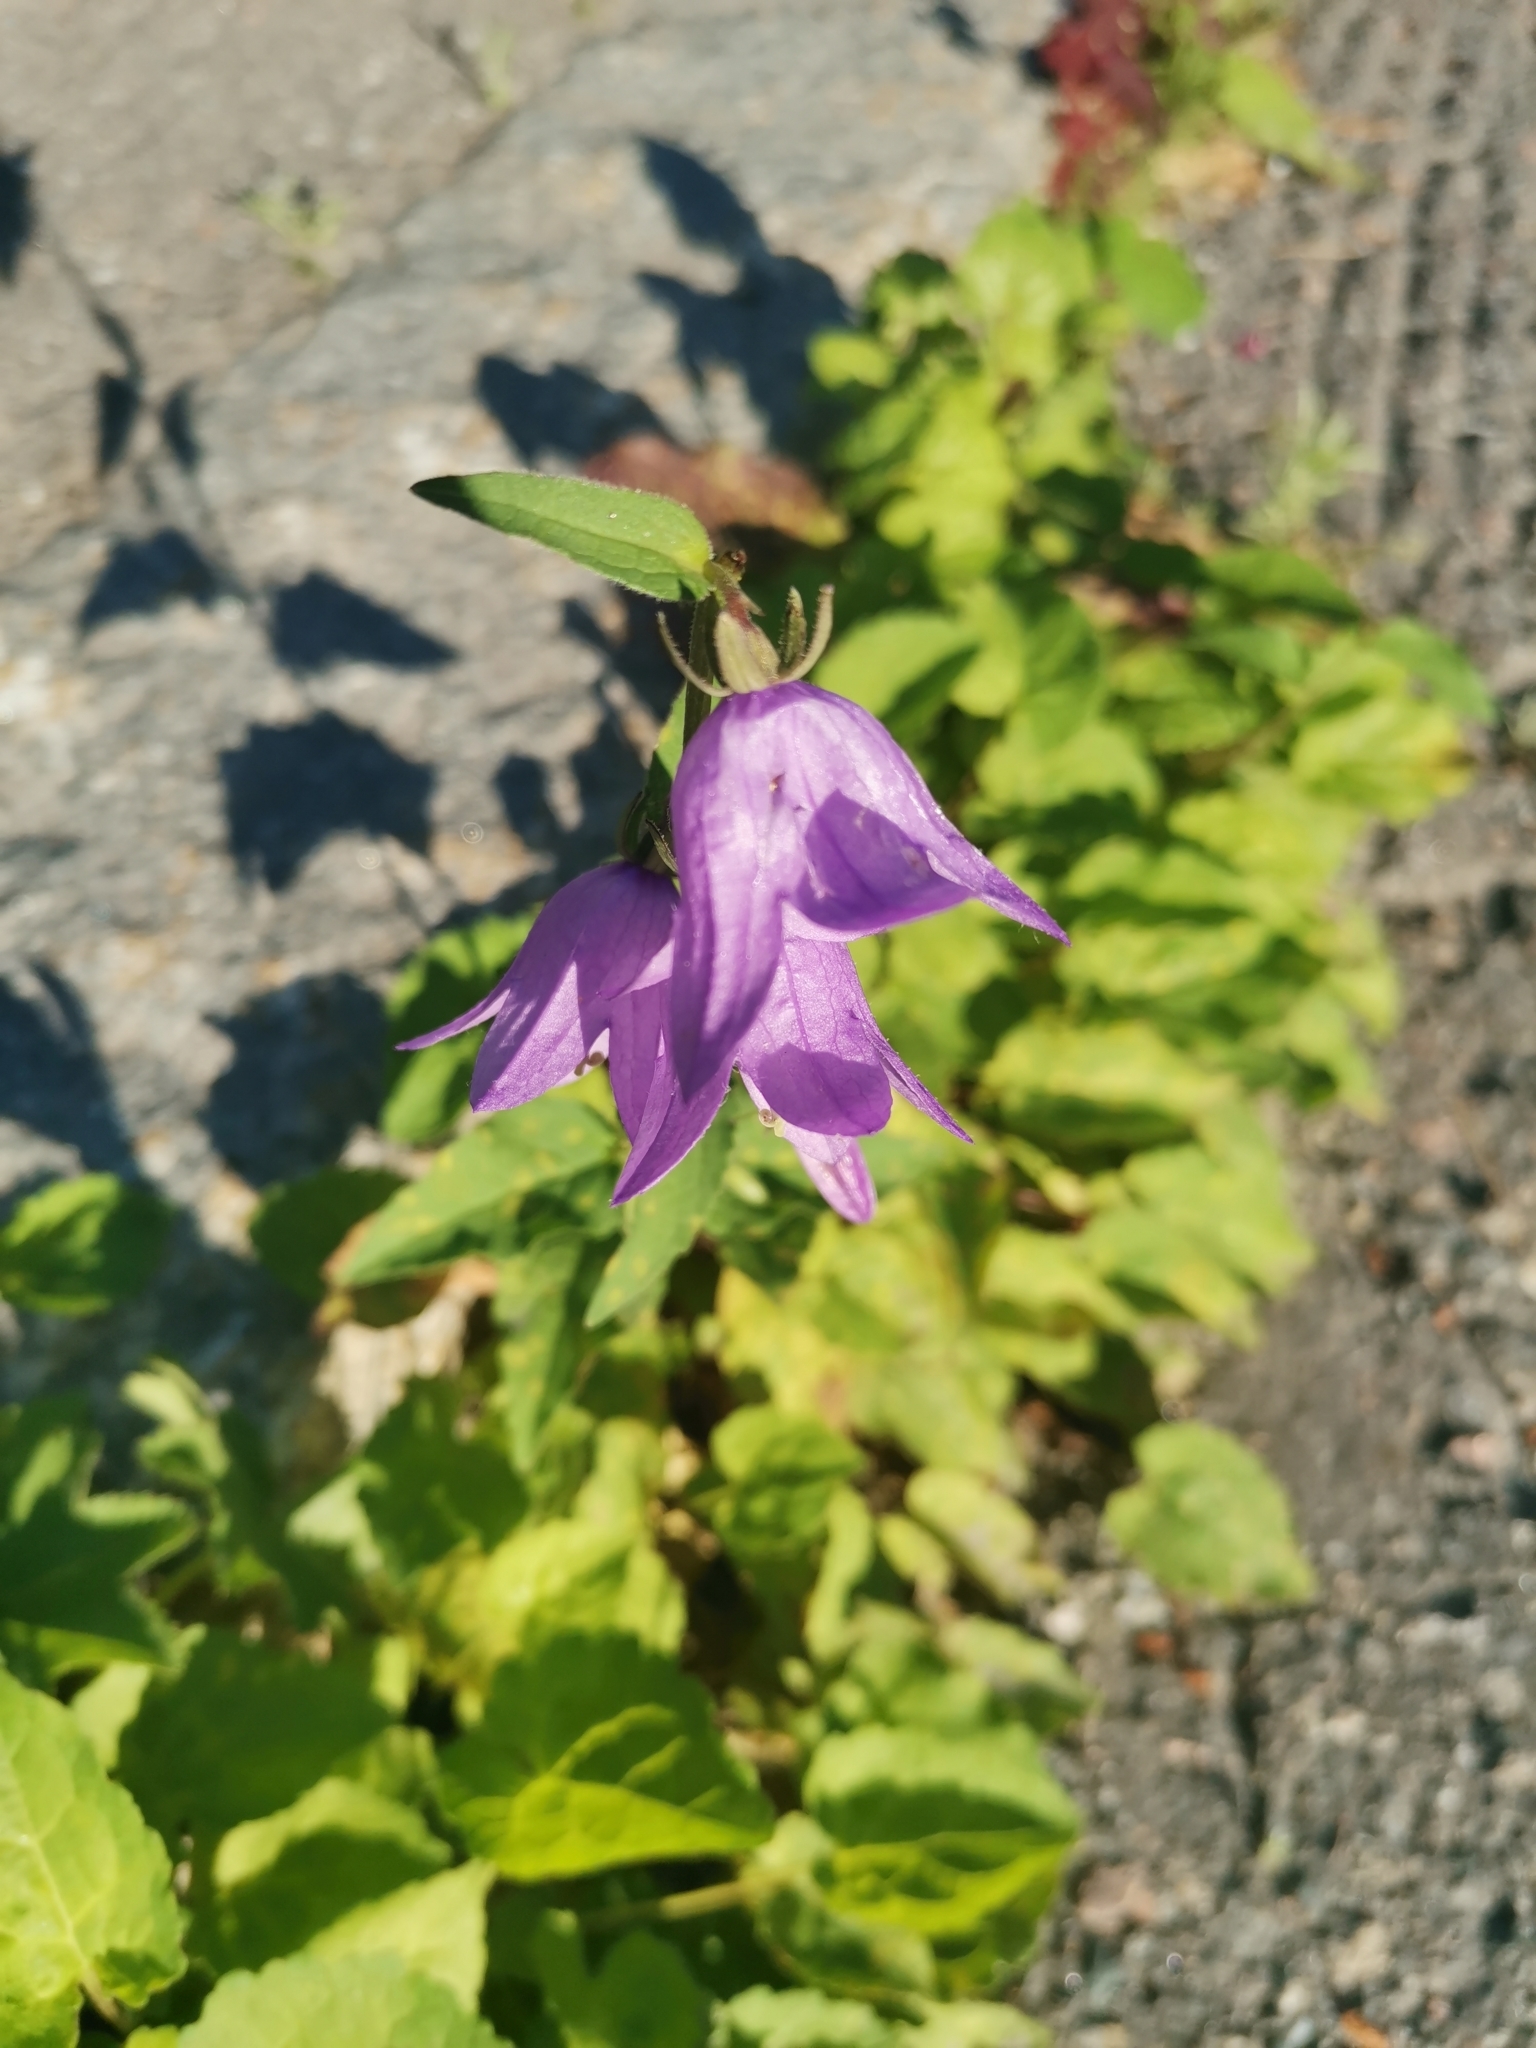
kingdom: Plantae
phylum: Tracheophyta
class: Magnoliopsida
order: Asterales
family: Campanulaceae
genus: Campanula
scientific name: Campanula rapunculoides
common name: Creeping bellflower
